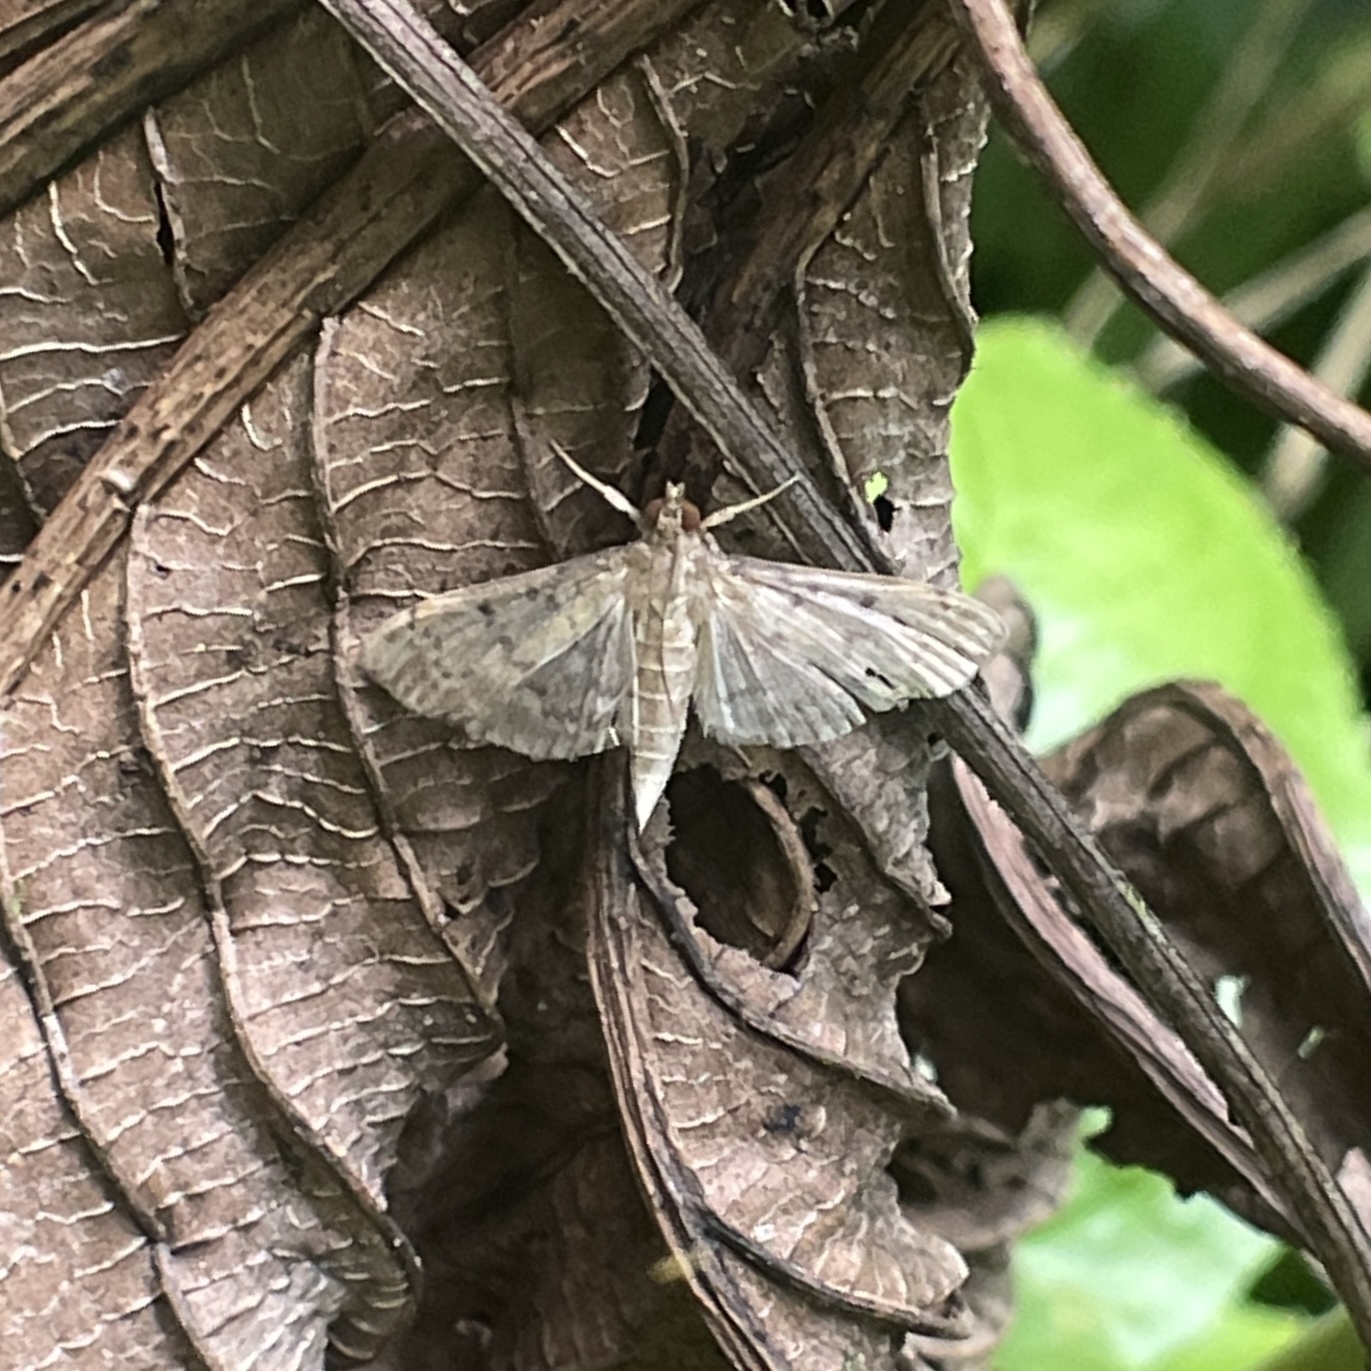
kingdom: Animalia
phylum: Arthropoda
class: Insecta
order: Lepidoptera
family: Crambidae
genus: Herpetogramma
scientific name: Herpetogramma phaeopteralis
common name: Dusky herpetogramma moth
